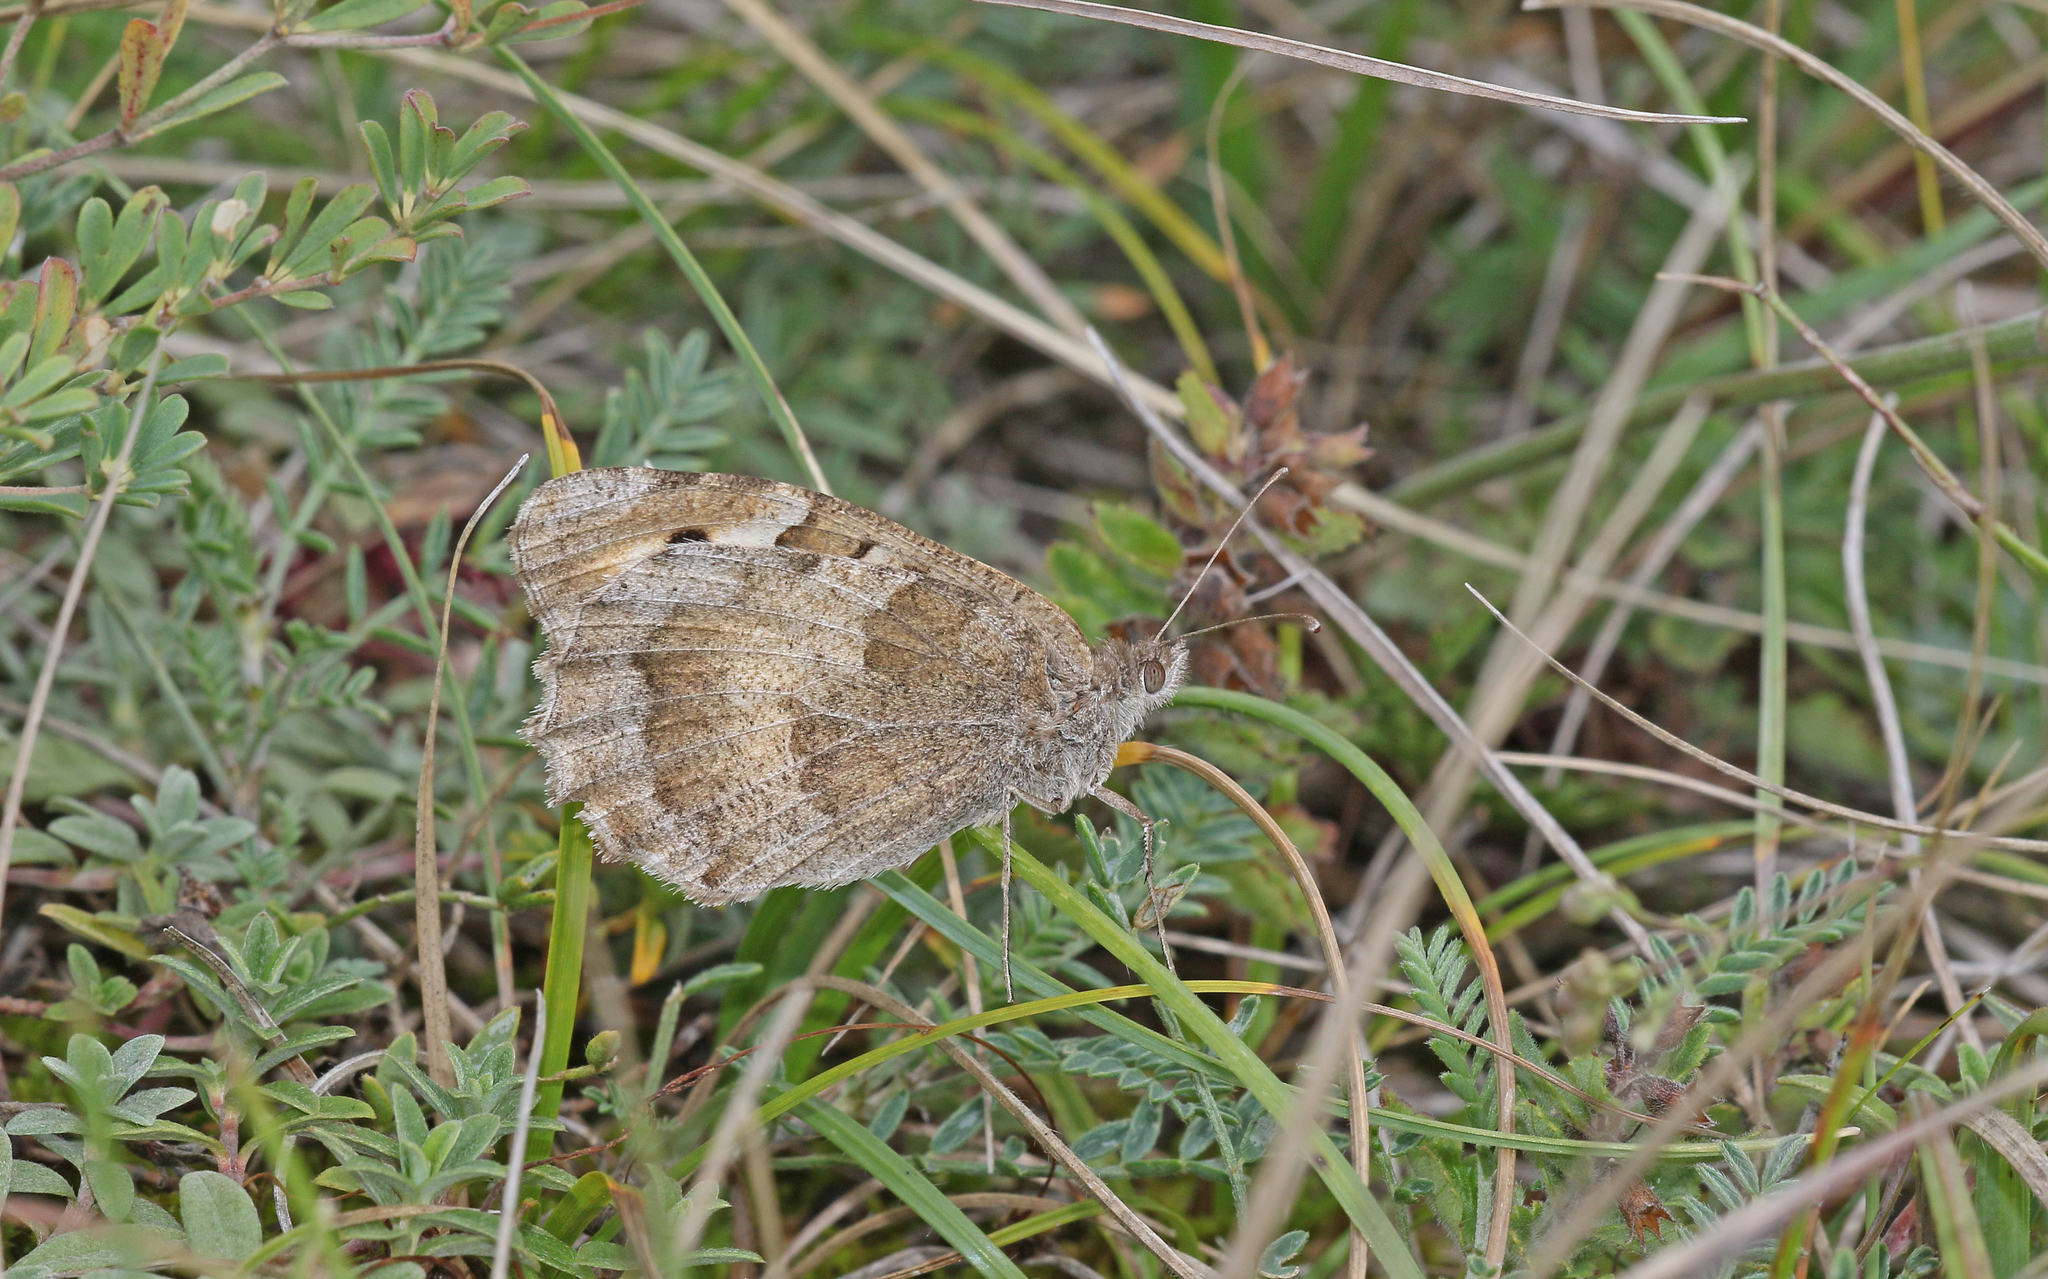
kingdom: Animalia
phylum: Arthropoda
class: Insecta
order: Lepidoptera
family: Nymphalidae
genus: Satyrus
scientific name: Satyrus briseis
